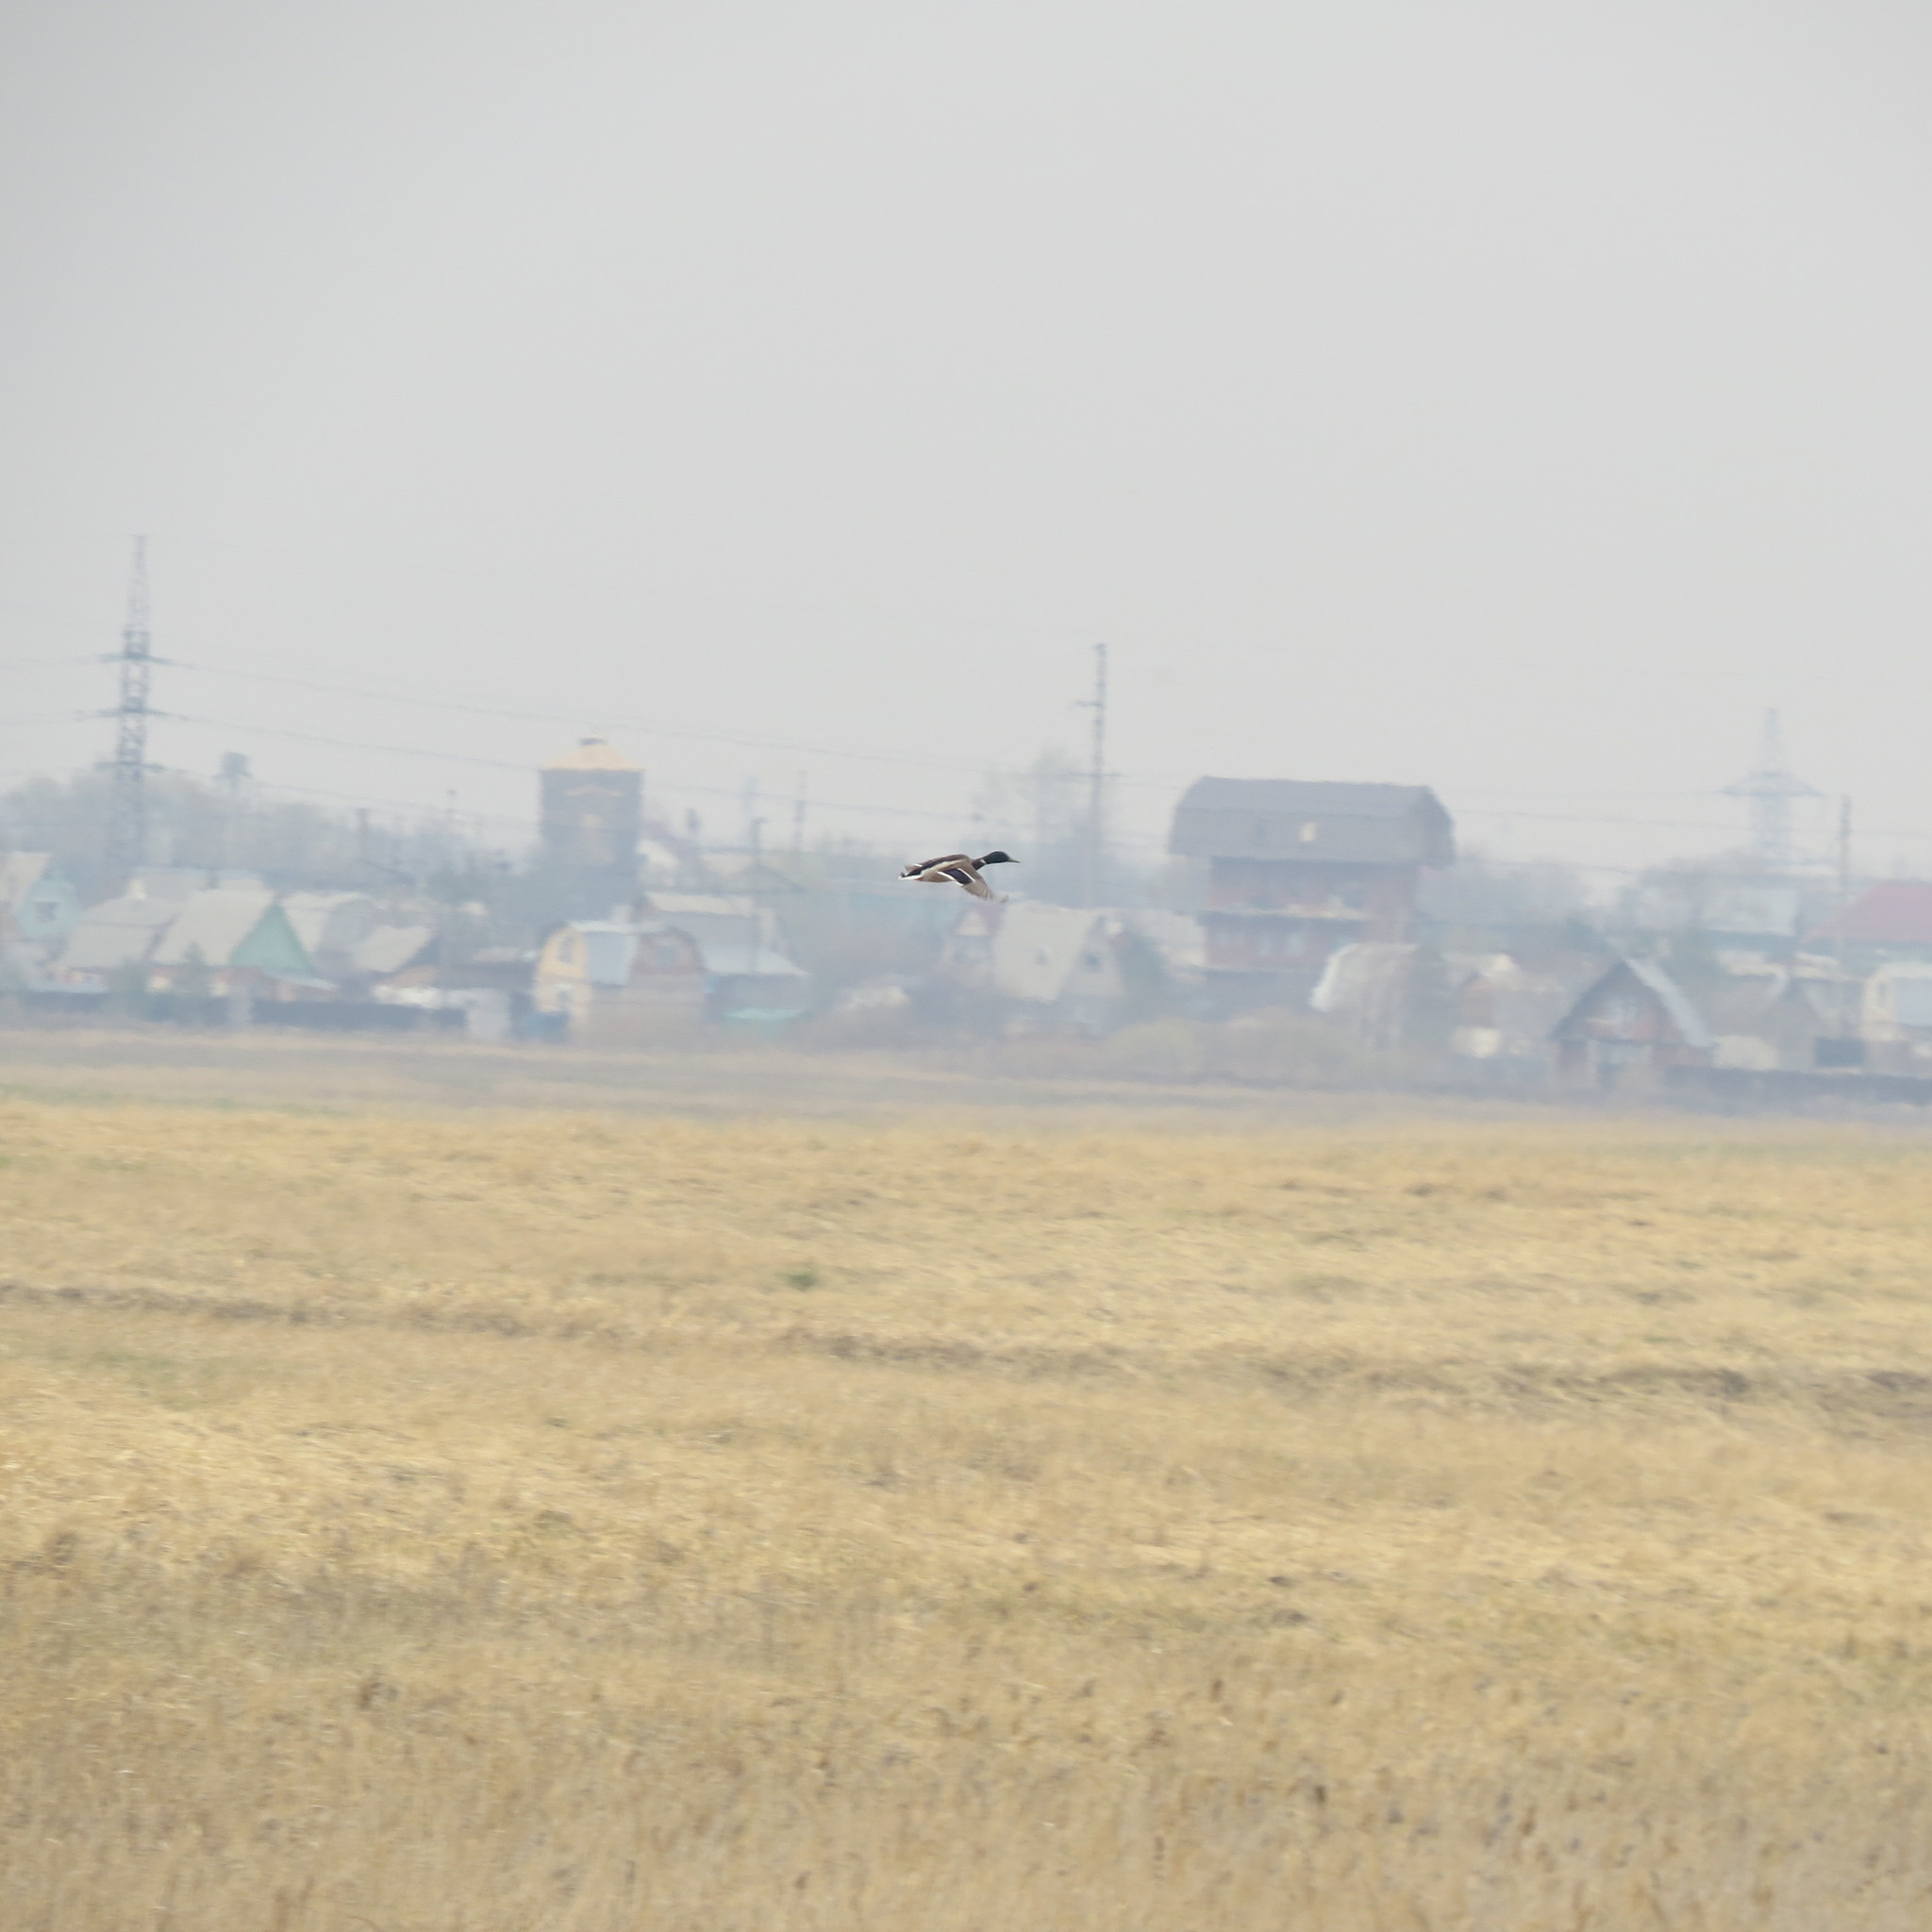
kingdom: Animalia
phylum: Chordata
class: Aves
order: Anseriformes
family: Anatidae
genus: Anas
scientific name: Anas platyrhynchos
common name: Mallard
